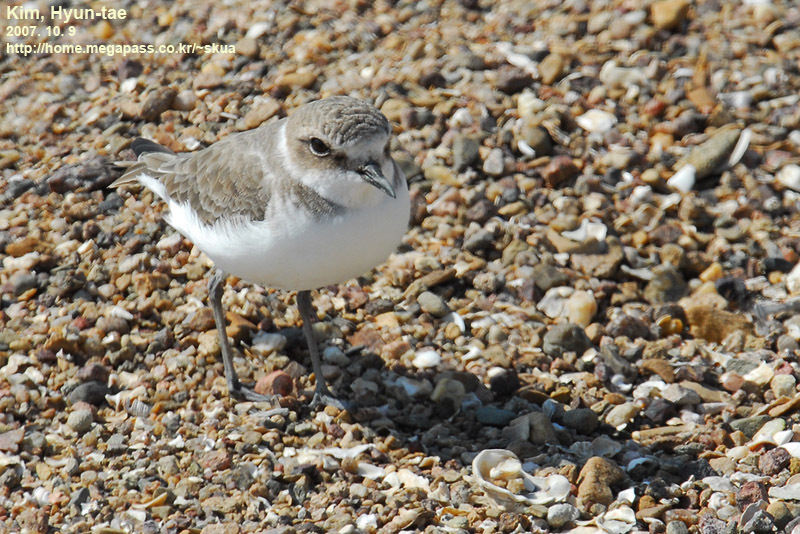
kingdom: Animalia
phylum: Chordata
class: Aves
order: Charadriiformes
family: Charadriidae
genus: Charadrius
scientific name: Charadrius alexandrinus
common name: Kentish plover
